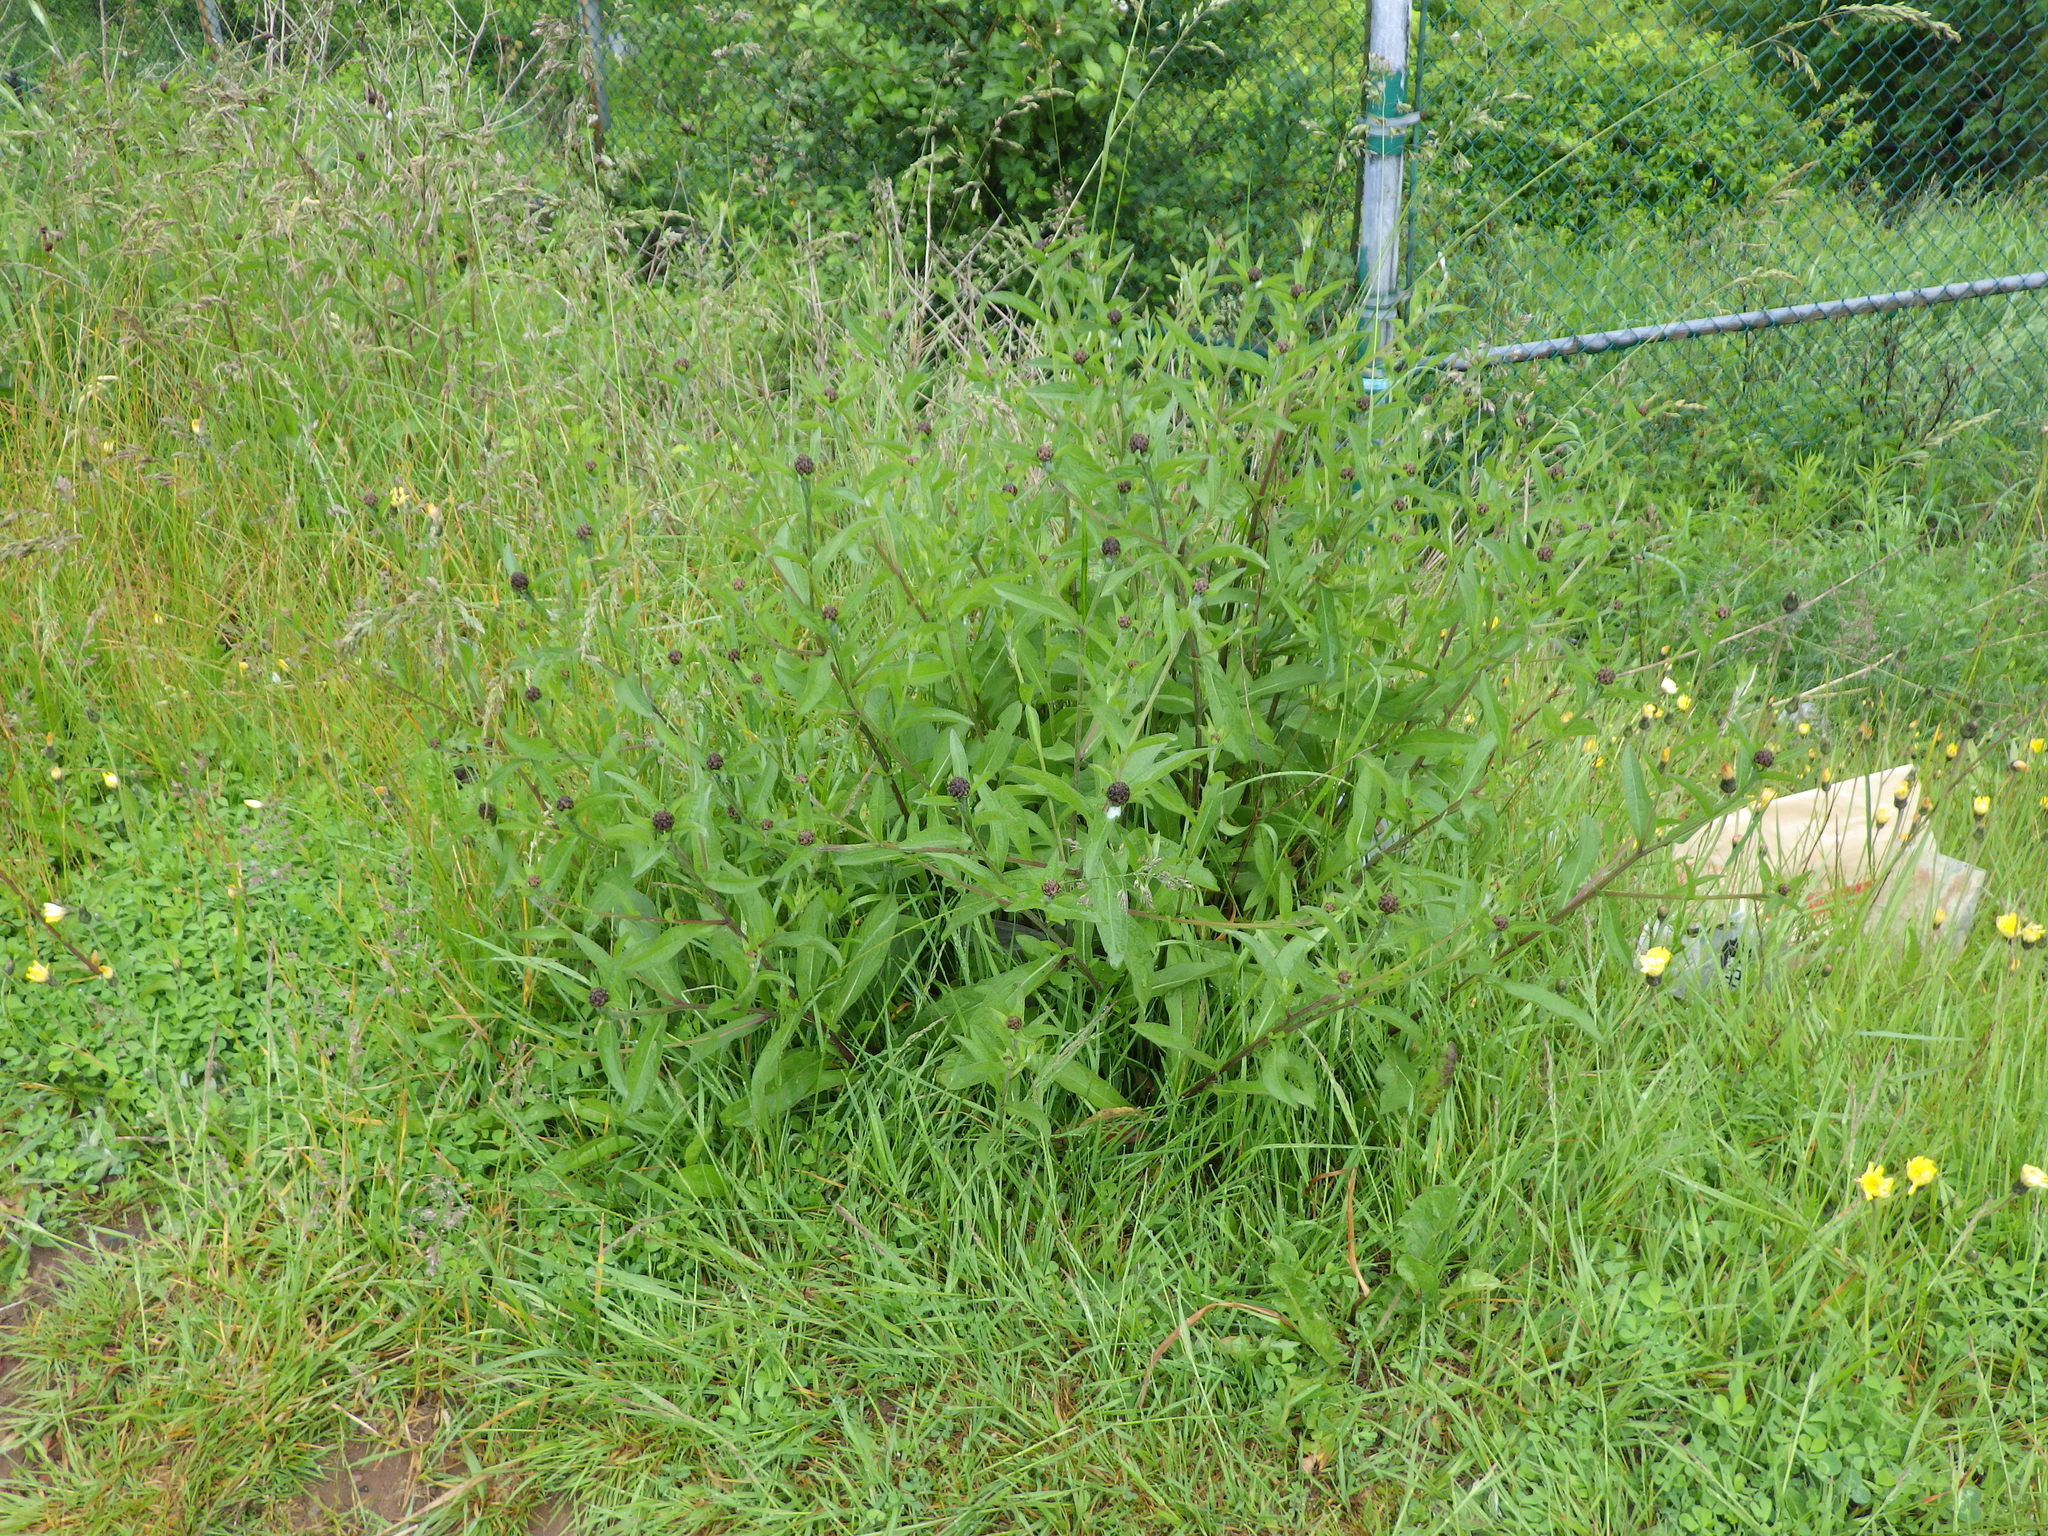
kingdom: Plantae
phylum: Tracheophyta
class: Magnoliopsida
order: Asterales
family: Asteraceae
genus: Centaurea
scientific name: Centaurea nigra
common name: Lesser knapweed
